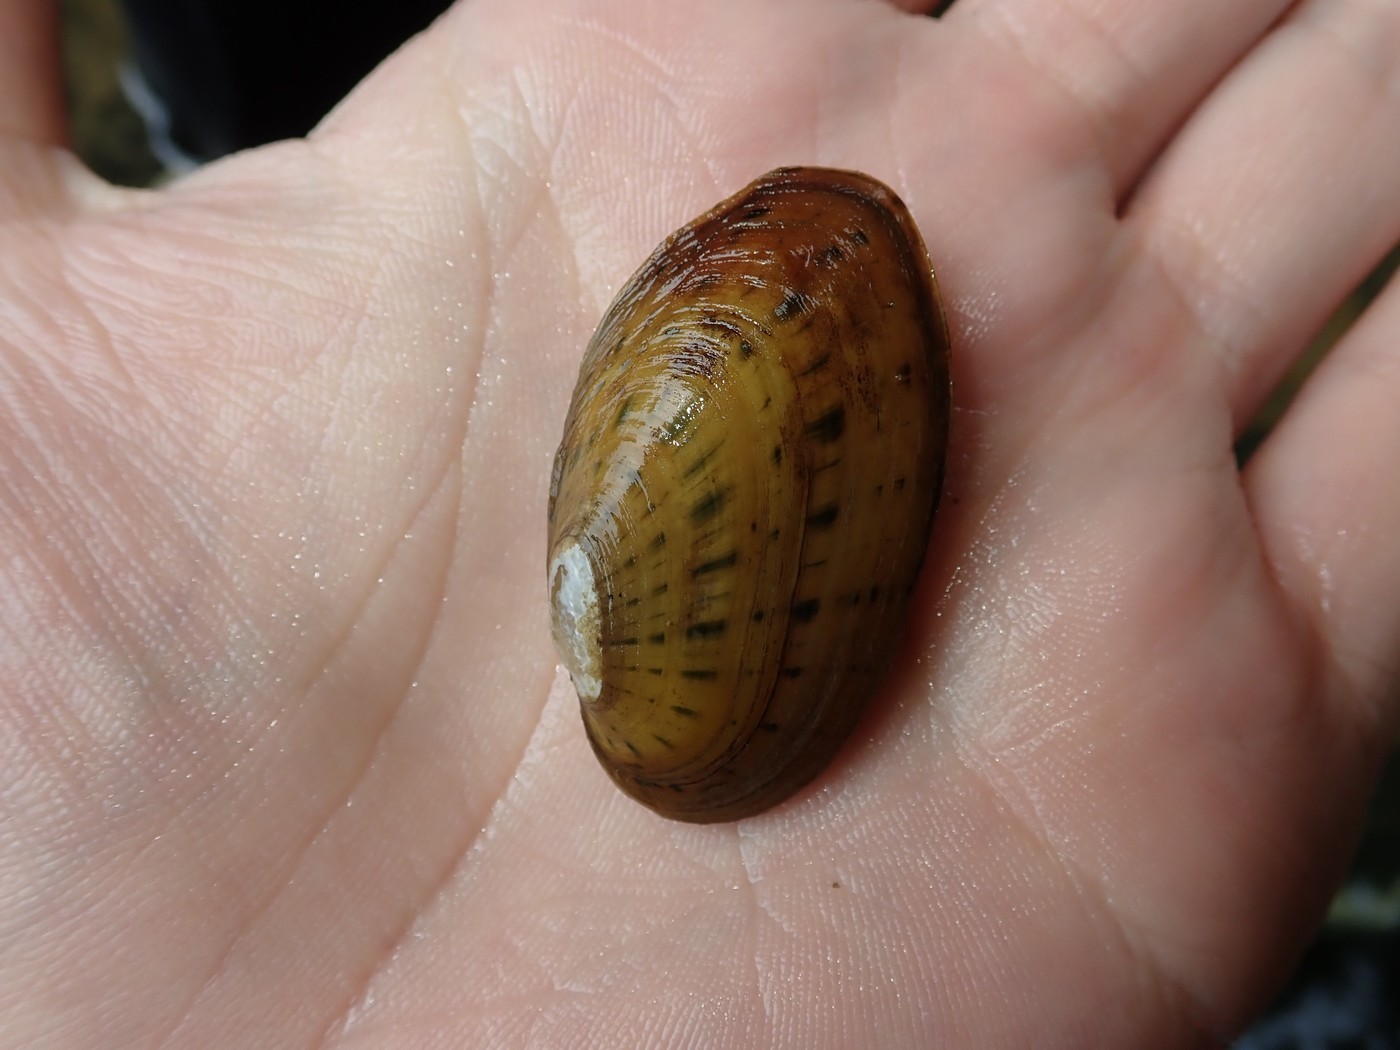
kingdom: Animalia
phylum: Mollusca
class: Bivalvia
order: Unionida
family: Unionidae
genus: Cambarunio
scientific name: Cambarunio taeniatus
